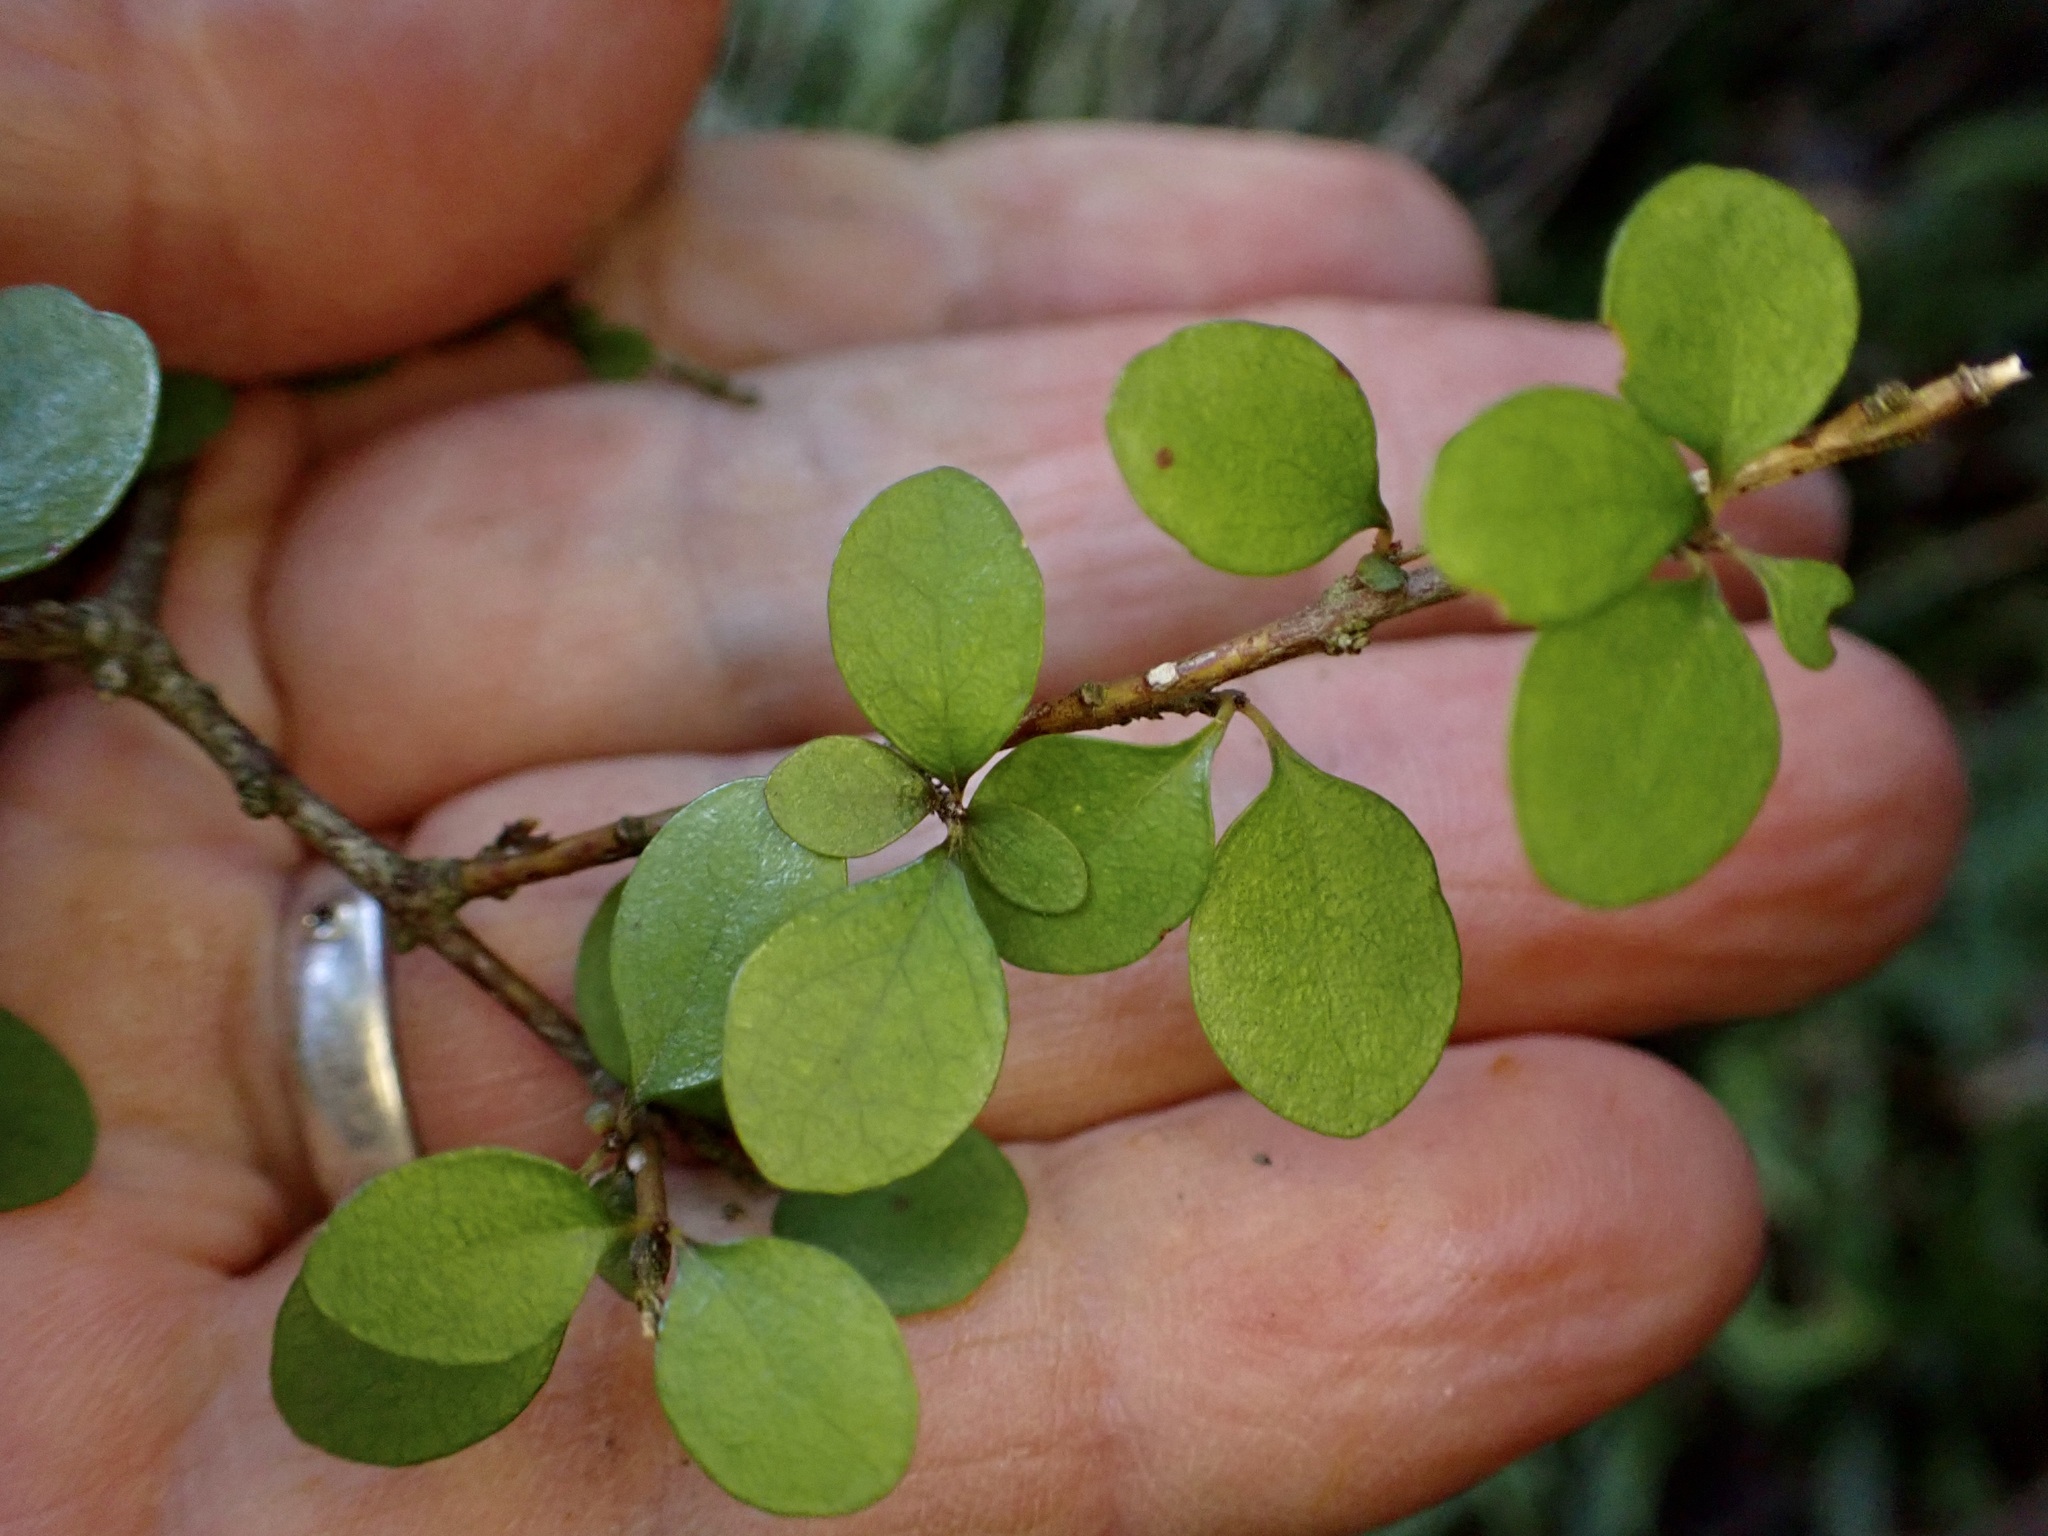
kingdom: Plantae
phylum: Tracheophyta
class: Magnoliopsida
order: Gentianales
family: Rubiaceae
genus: Coprosma
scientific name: Coprosma rhamnoides
